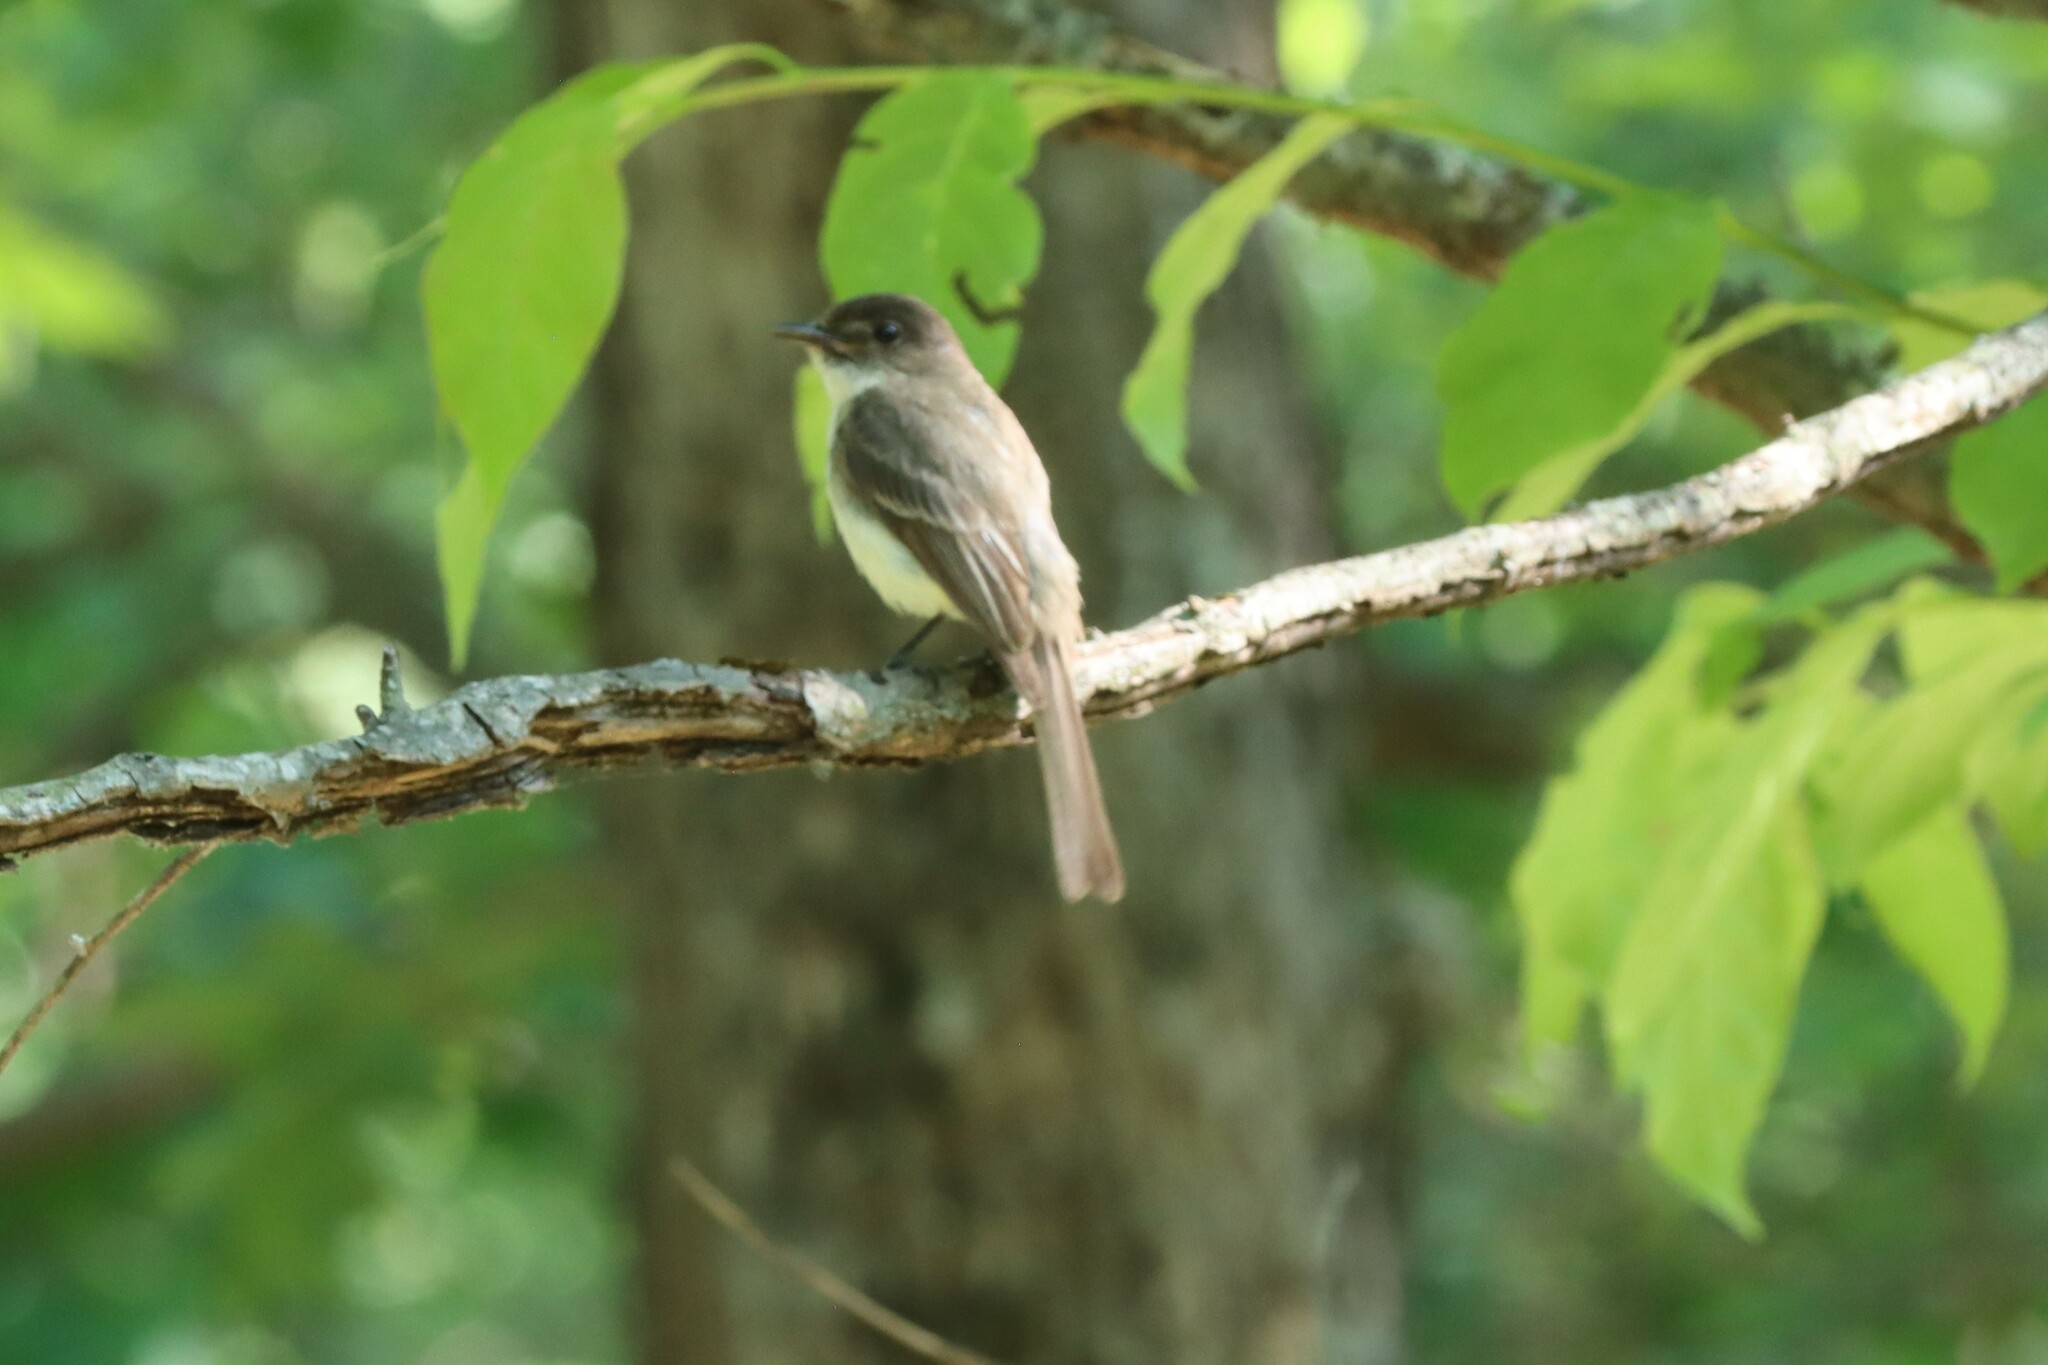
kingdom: Animalia
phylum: Chordata
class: Aves
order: Passeriformes
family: Tyrannidae
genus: Sayornis
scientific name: Sayornis phoebe
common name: Eastern phoebe
